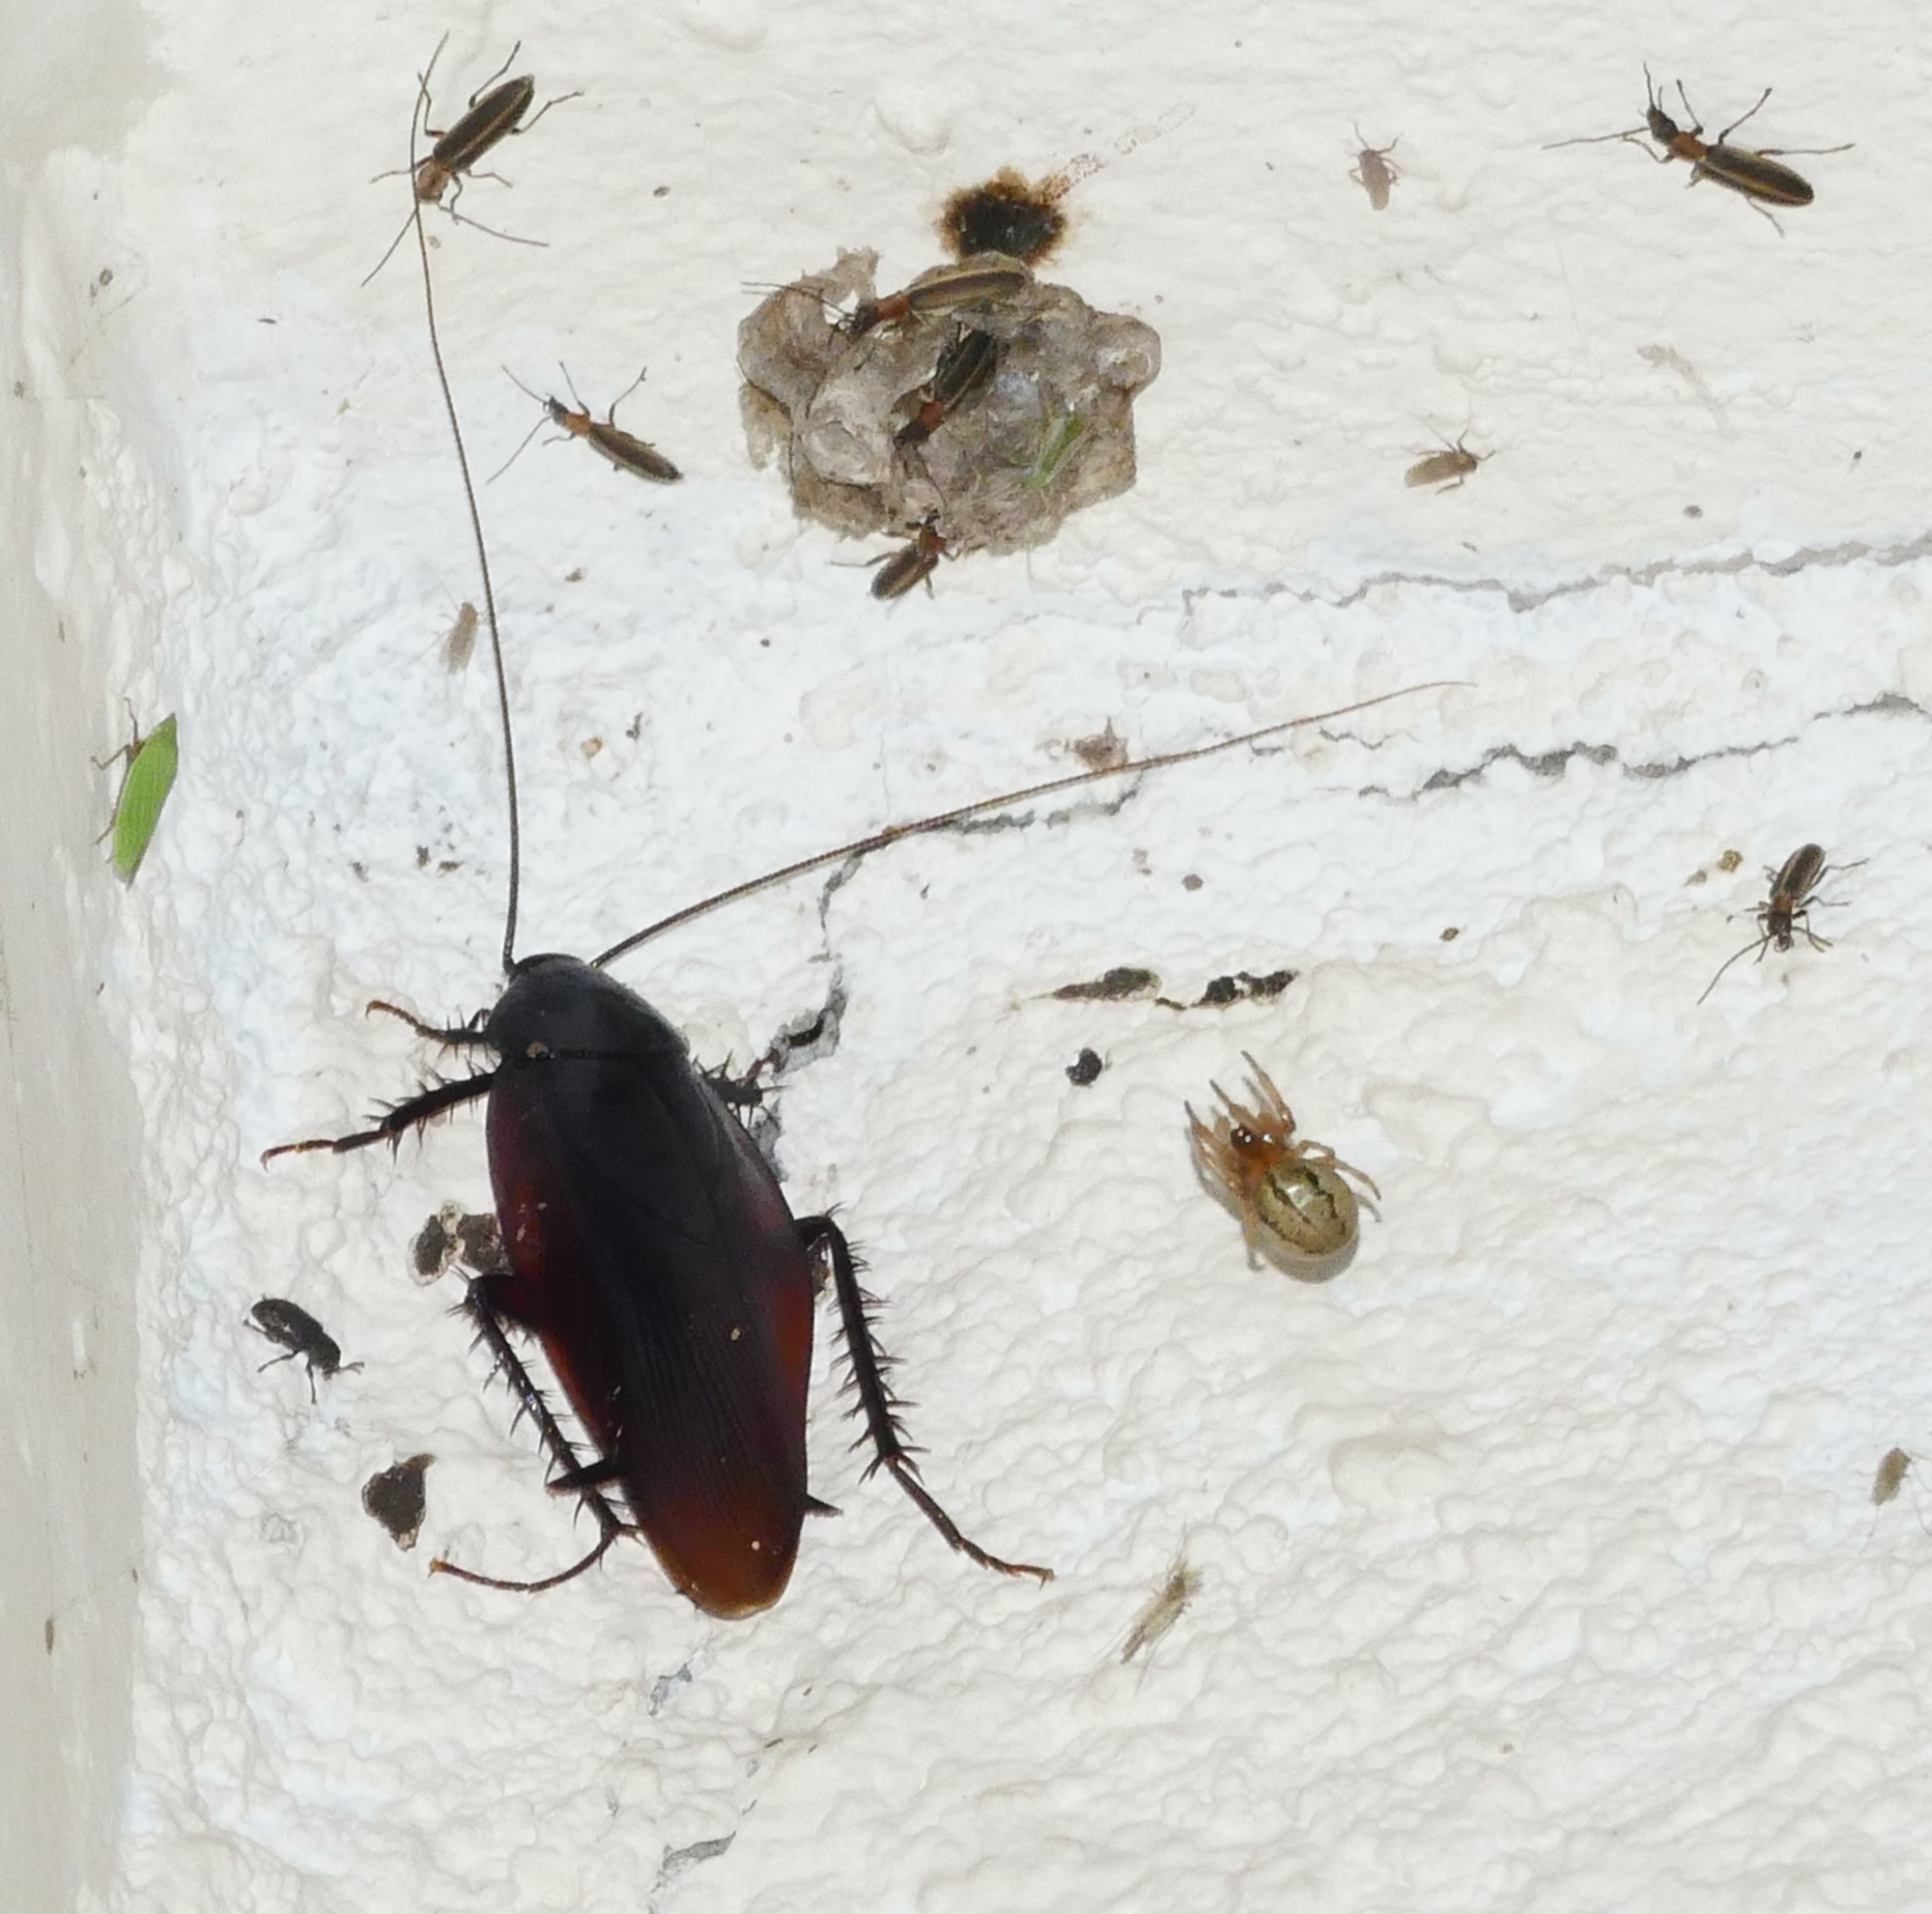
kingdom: Animalia
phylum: Arthropoda
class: Insecta
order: Blattodea
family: Blattidae
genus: Periplaneta
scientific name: Periplaneta fuliginosa
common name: Smokeybrown cockroad
